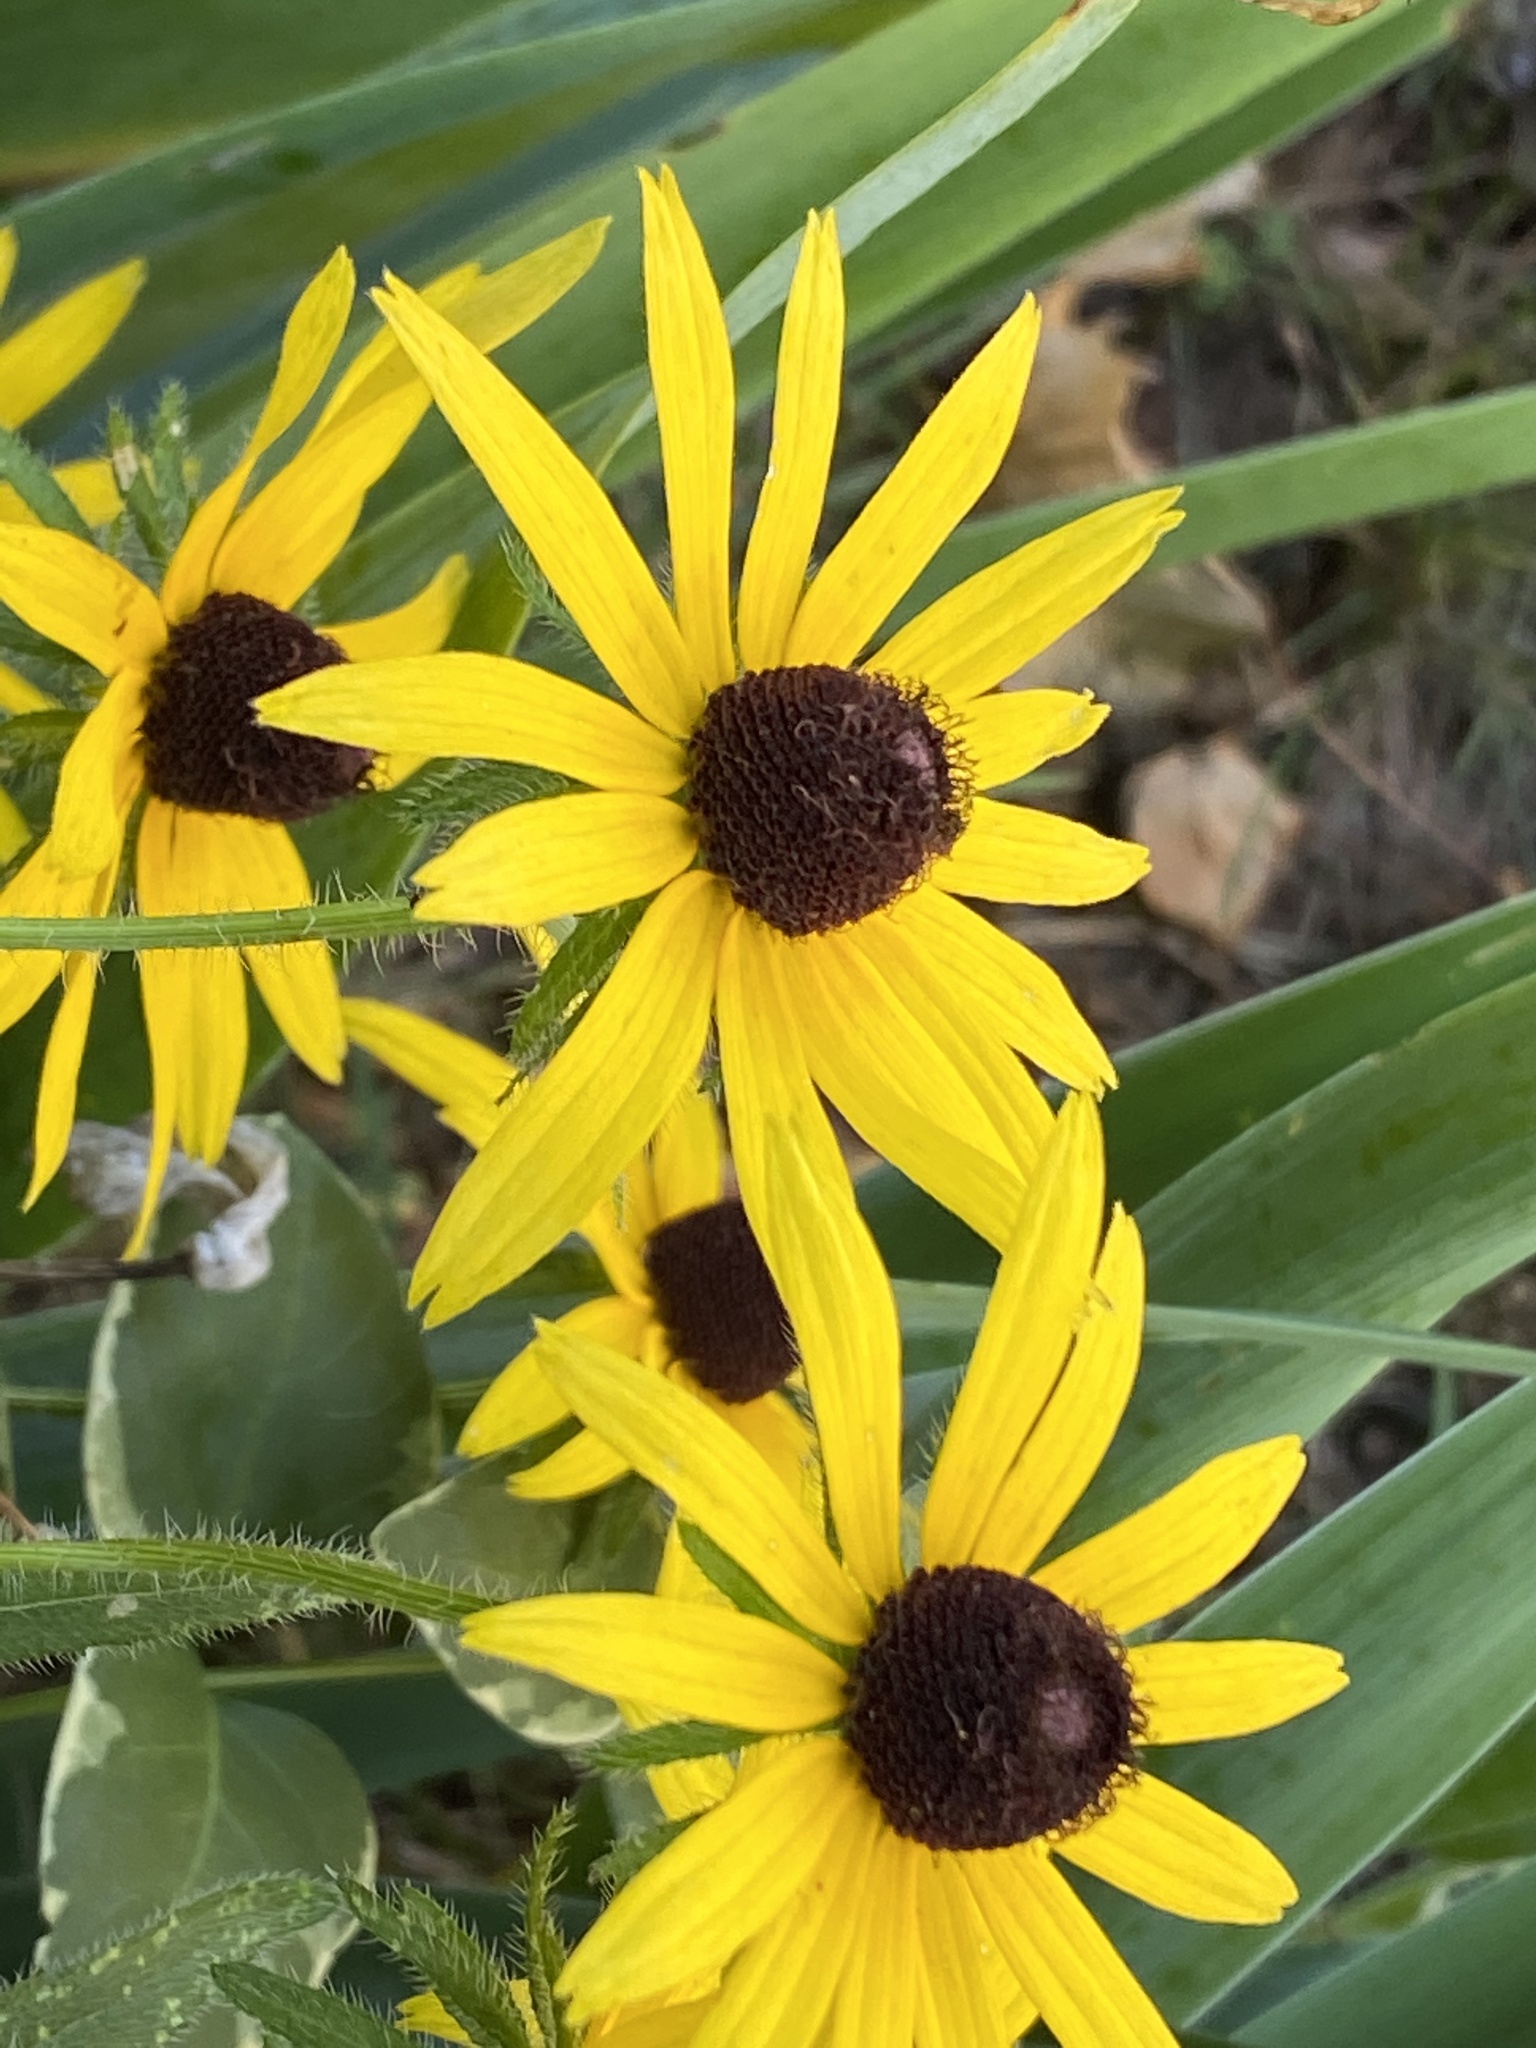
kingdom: Plantae
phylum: Tracheophyta
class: Magnoliopsida
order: Asterales
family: Asteraceae
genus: Rudbeckia
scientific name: Rudbeckia hirta
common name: Black-eyed-susan
